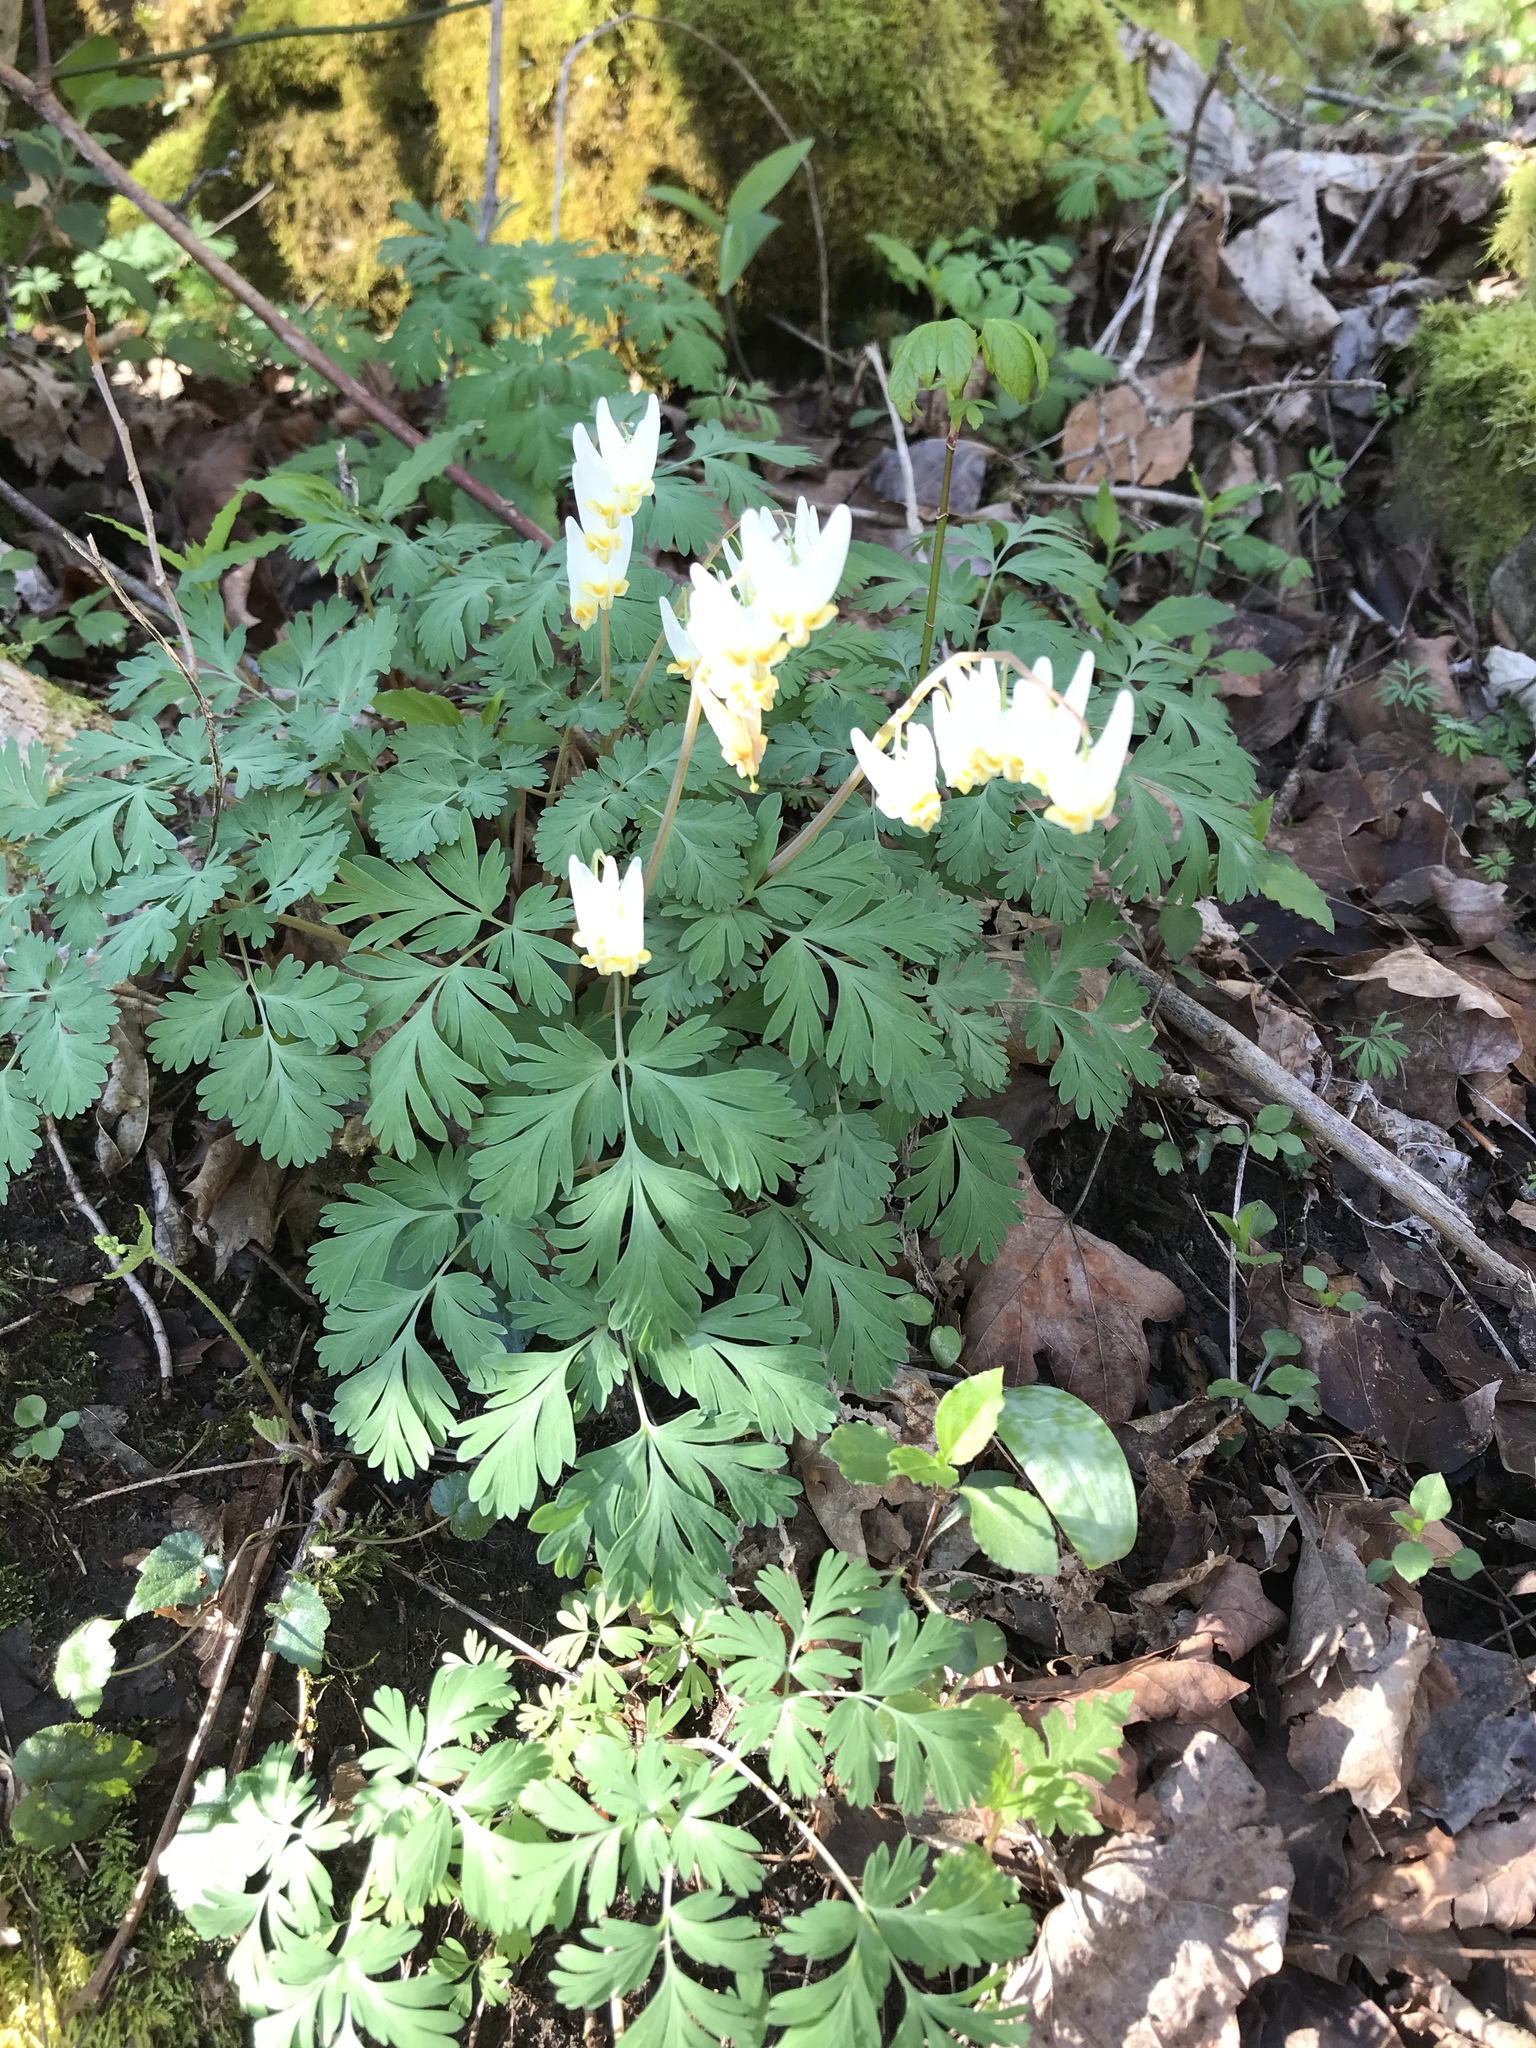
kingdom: Plantae
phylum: Tracheophyta
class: Magnoliopsida
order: Ranunculales
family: Papaveraceae
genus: Dicentra
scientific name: Dicentra cucullaria
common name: Dutchman's breeches
